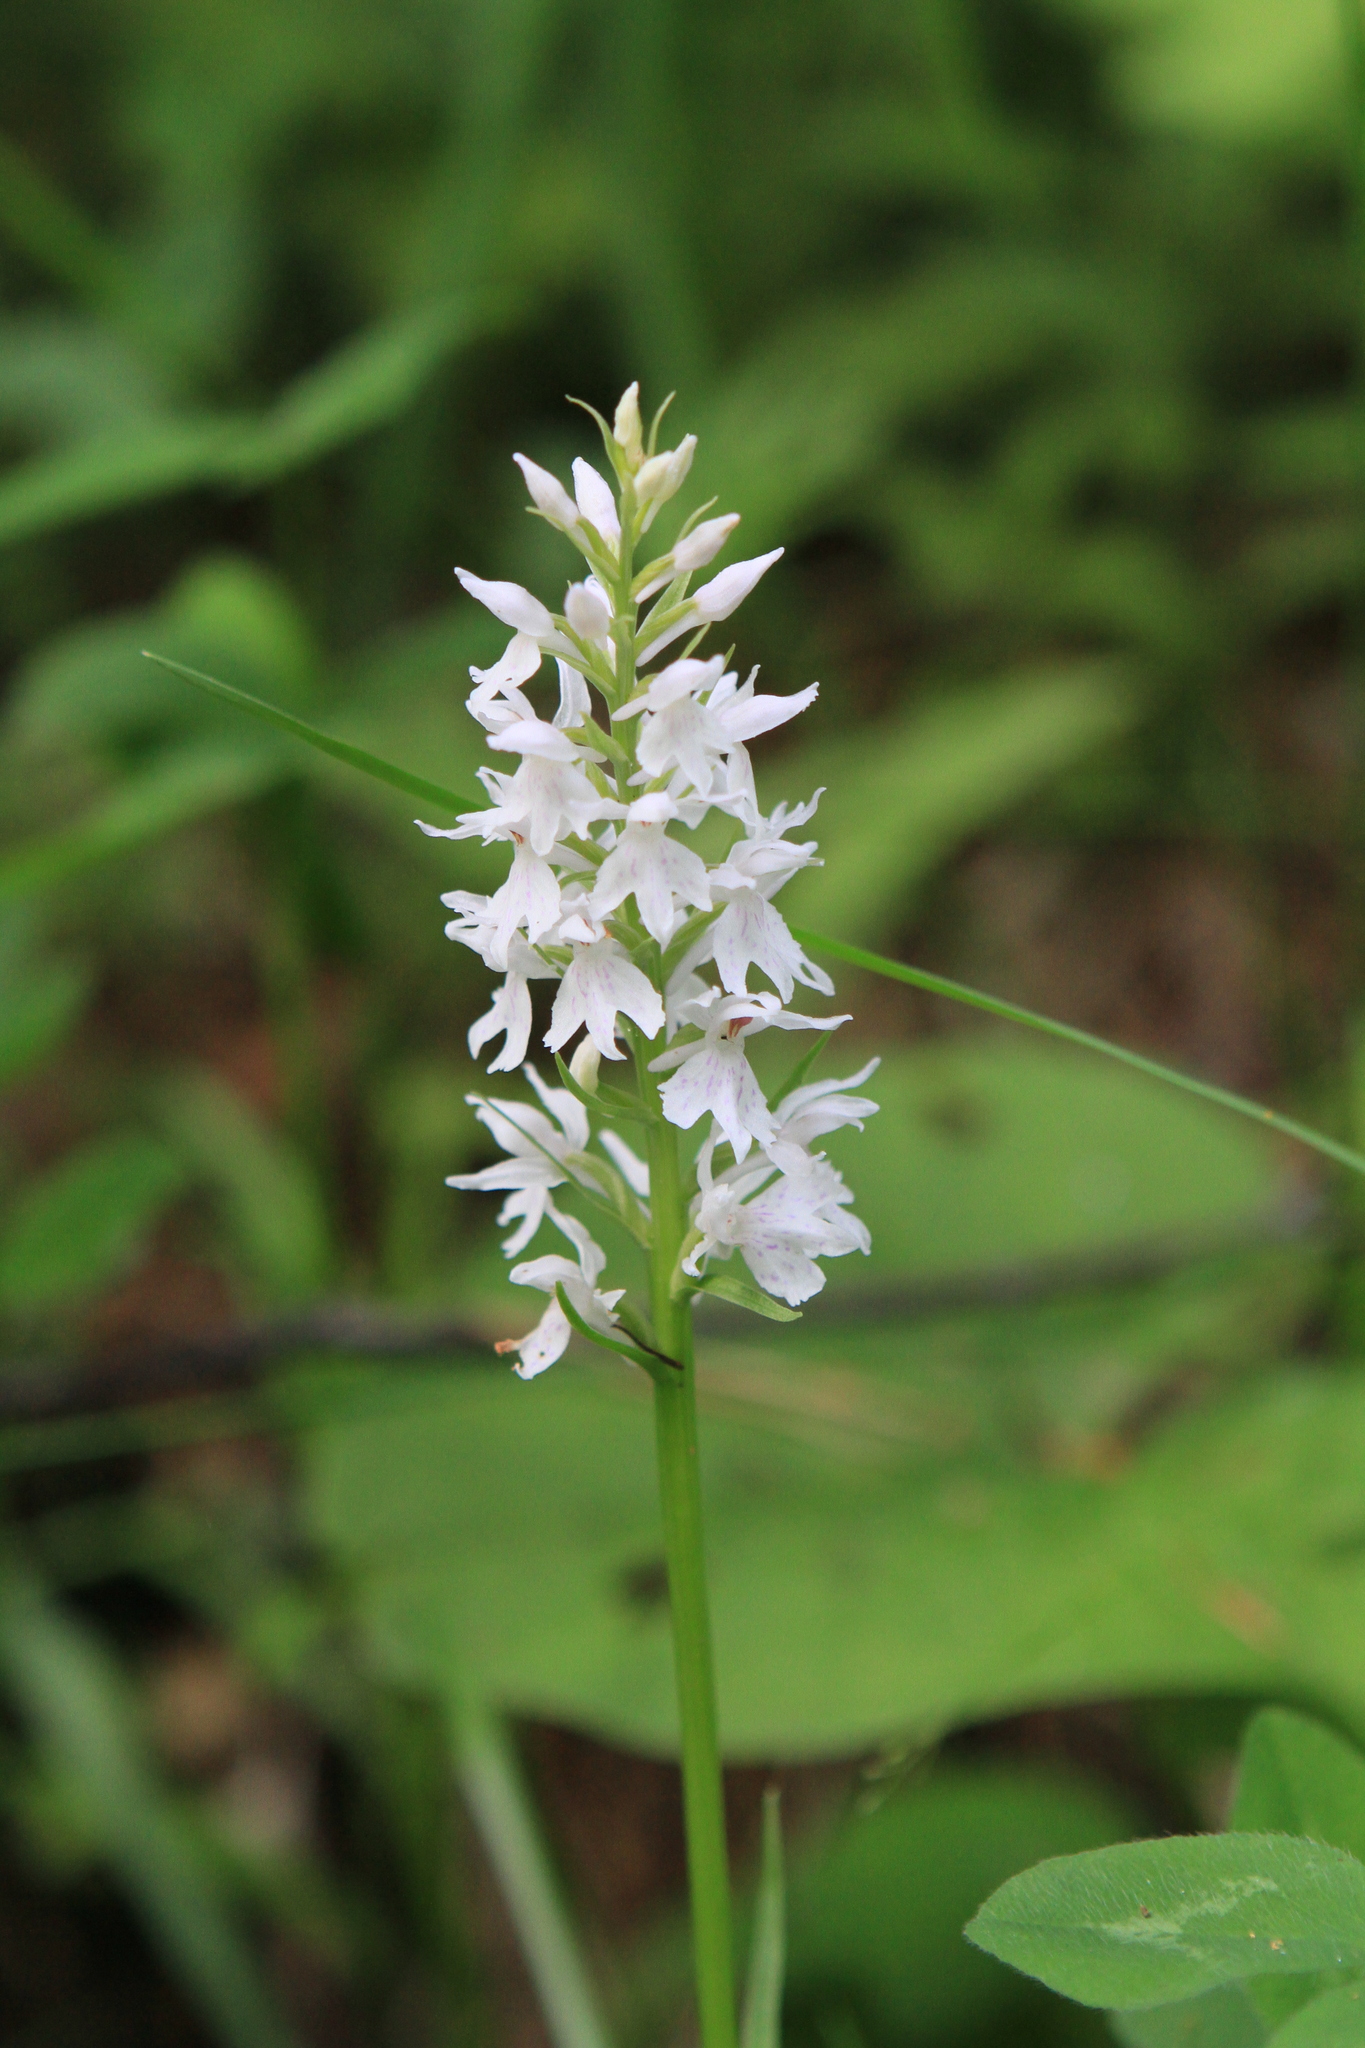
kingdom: Plantae
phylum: Tracheophyta
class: Liliopsida
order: Asparagales
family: Orchidaceae
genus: Dactylorhiza
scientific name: Dactylorhiza maculata
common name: Heath spotted-orchid
